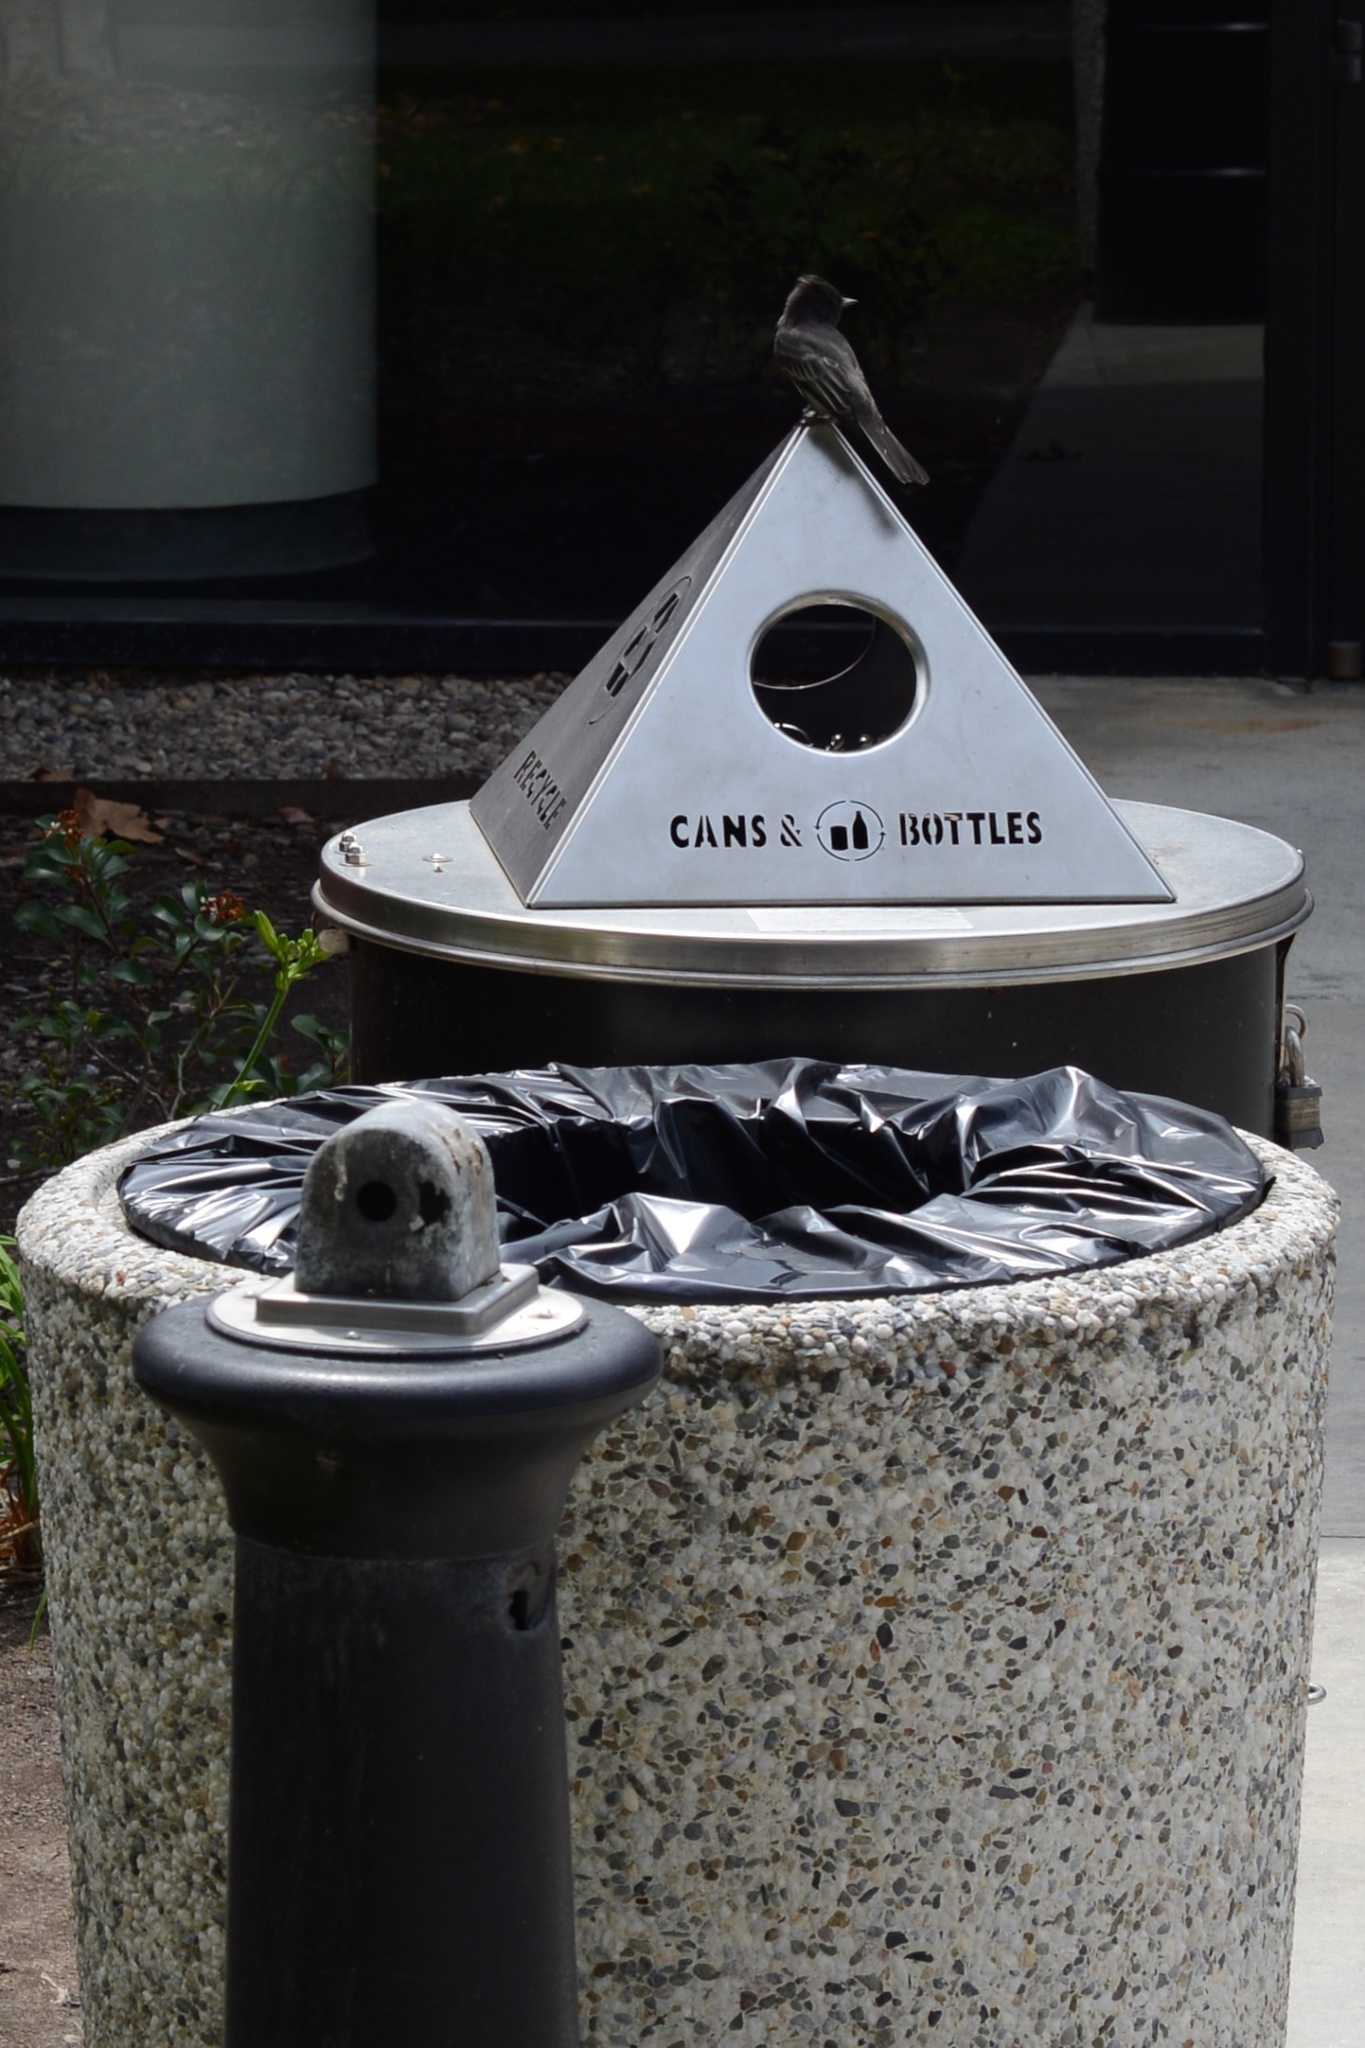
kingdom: Animalia
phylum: Chordata
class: Aves
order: Passeriformes
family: Tyrannidae
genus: Sayornis
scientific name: Sayornis nigricans
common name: Black phoebe
